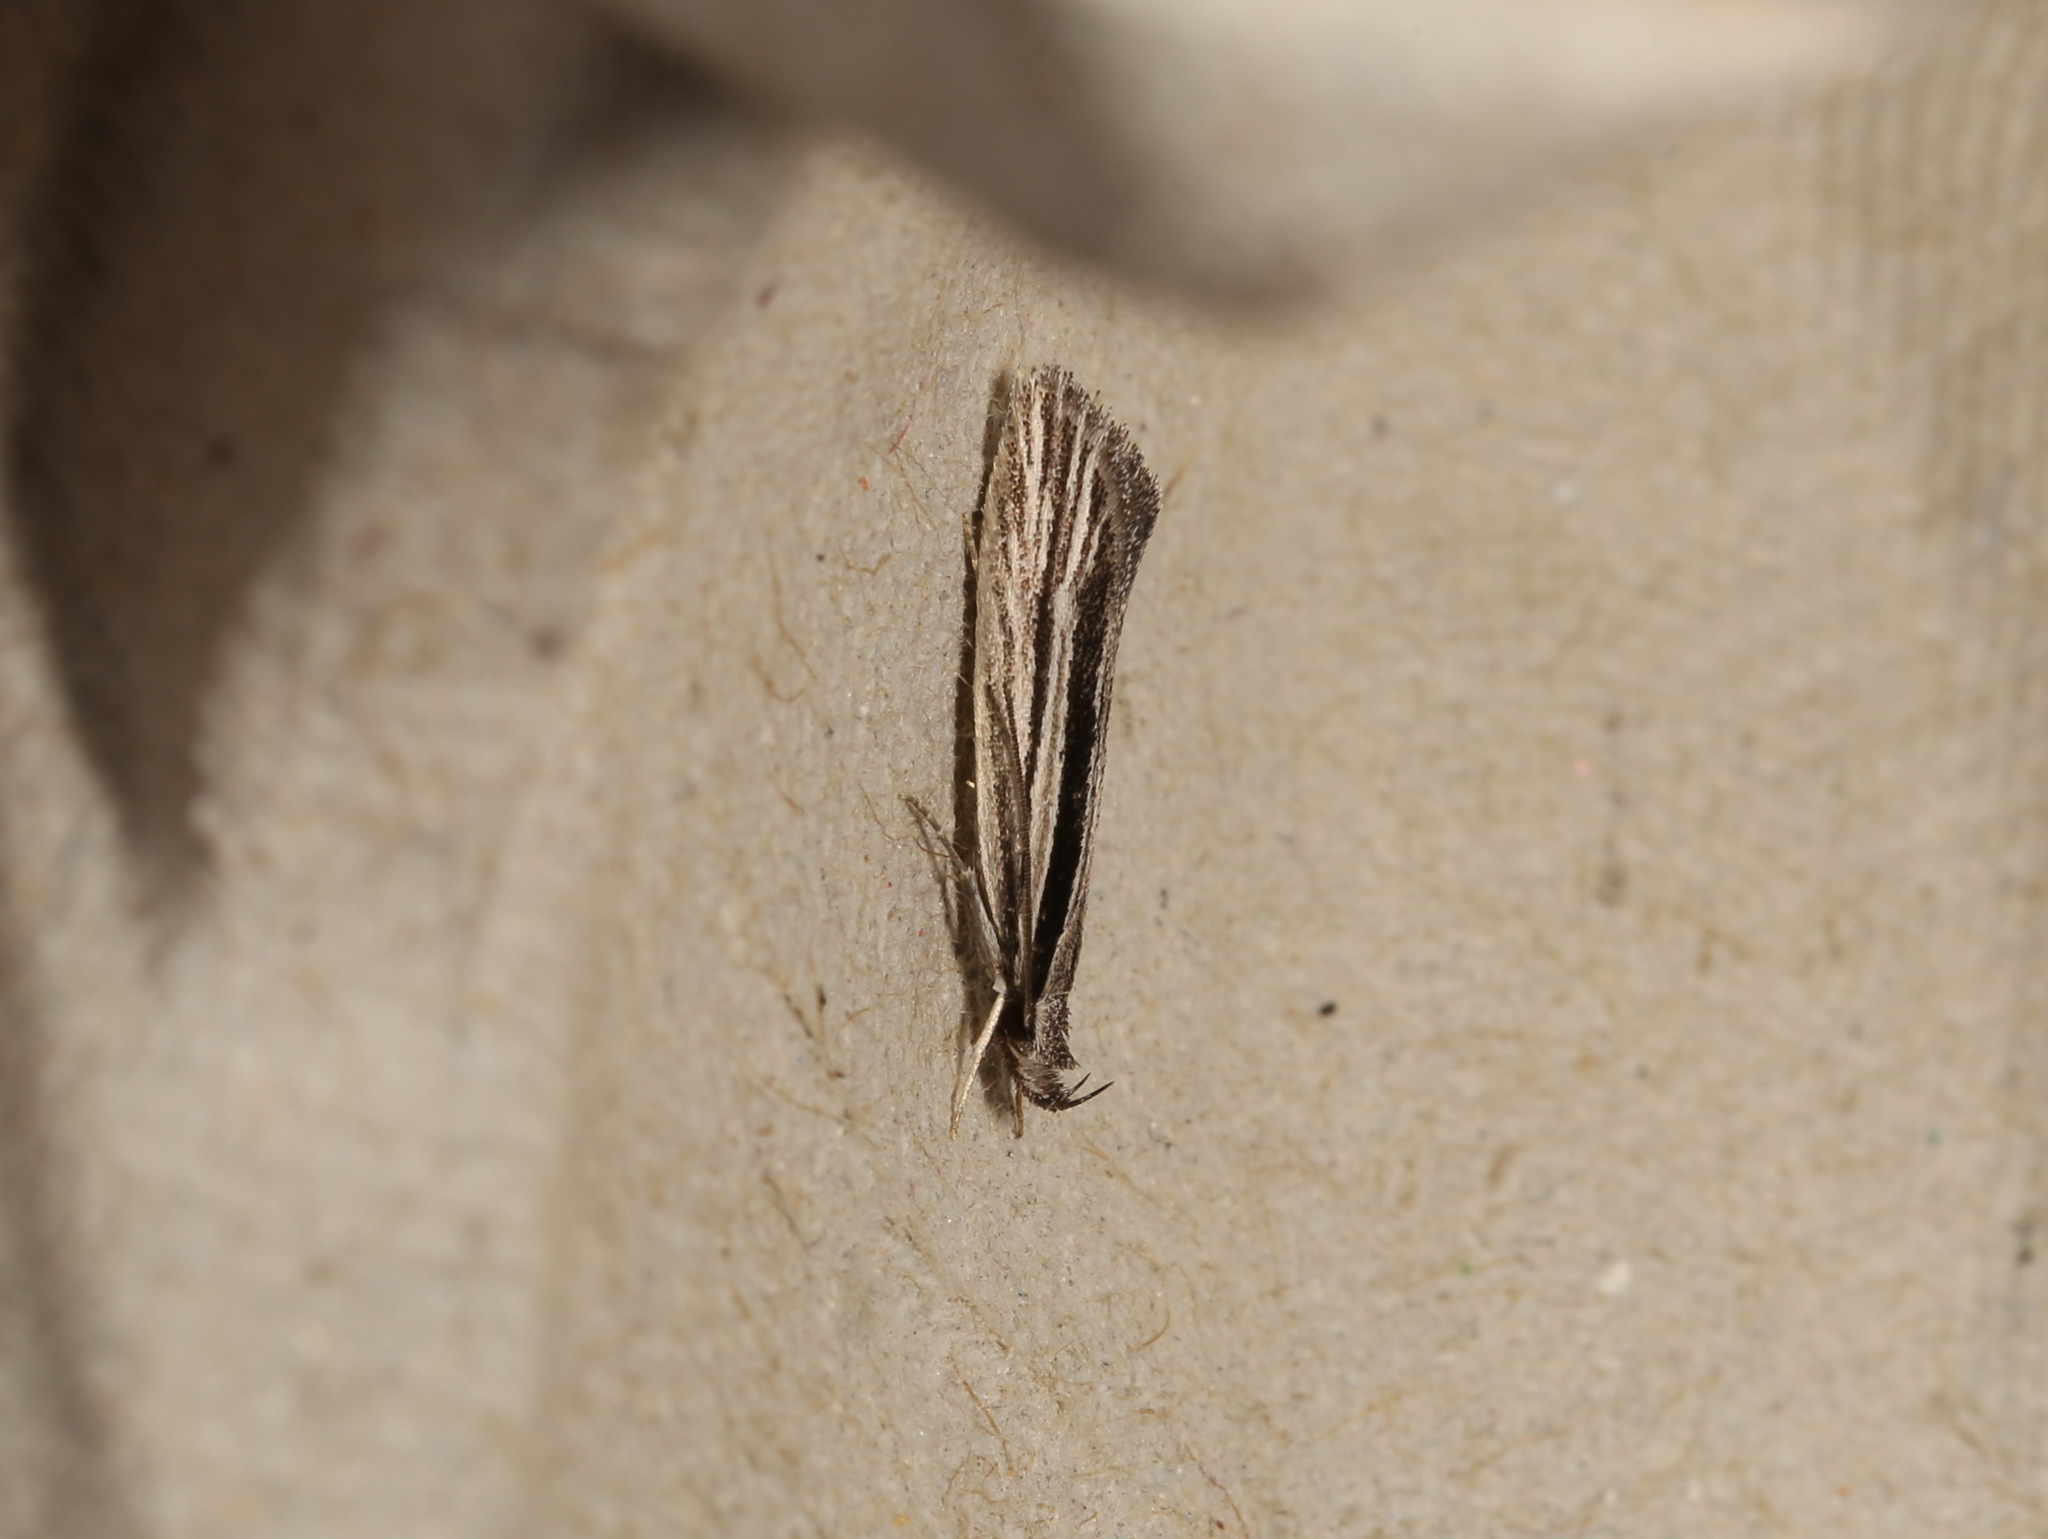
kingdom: Animalia
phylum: Arthropoda
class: Insecta
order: Lepidoptera
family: Depressariidae
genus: Cryptolechia
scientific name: Cryptolechia Leptosaces schistopa
